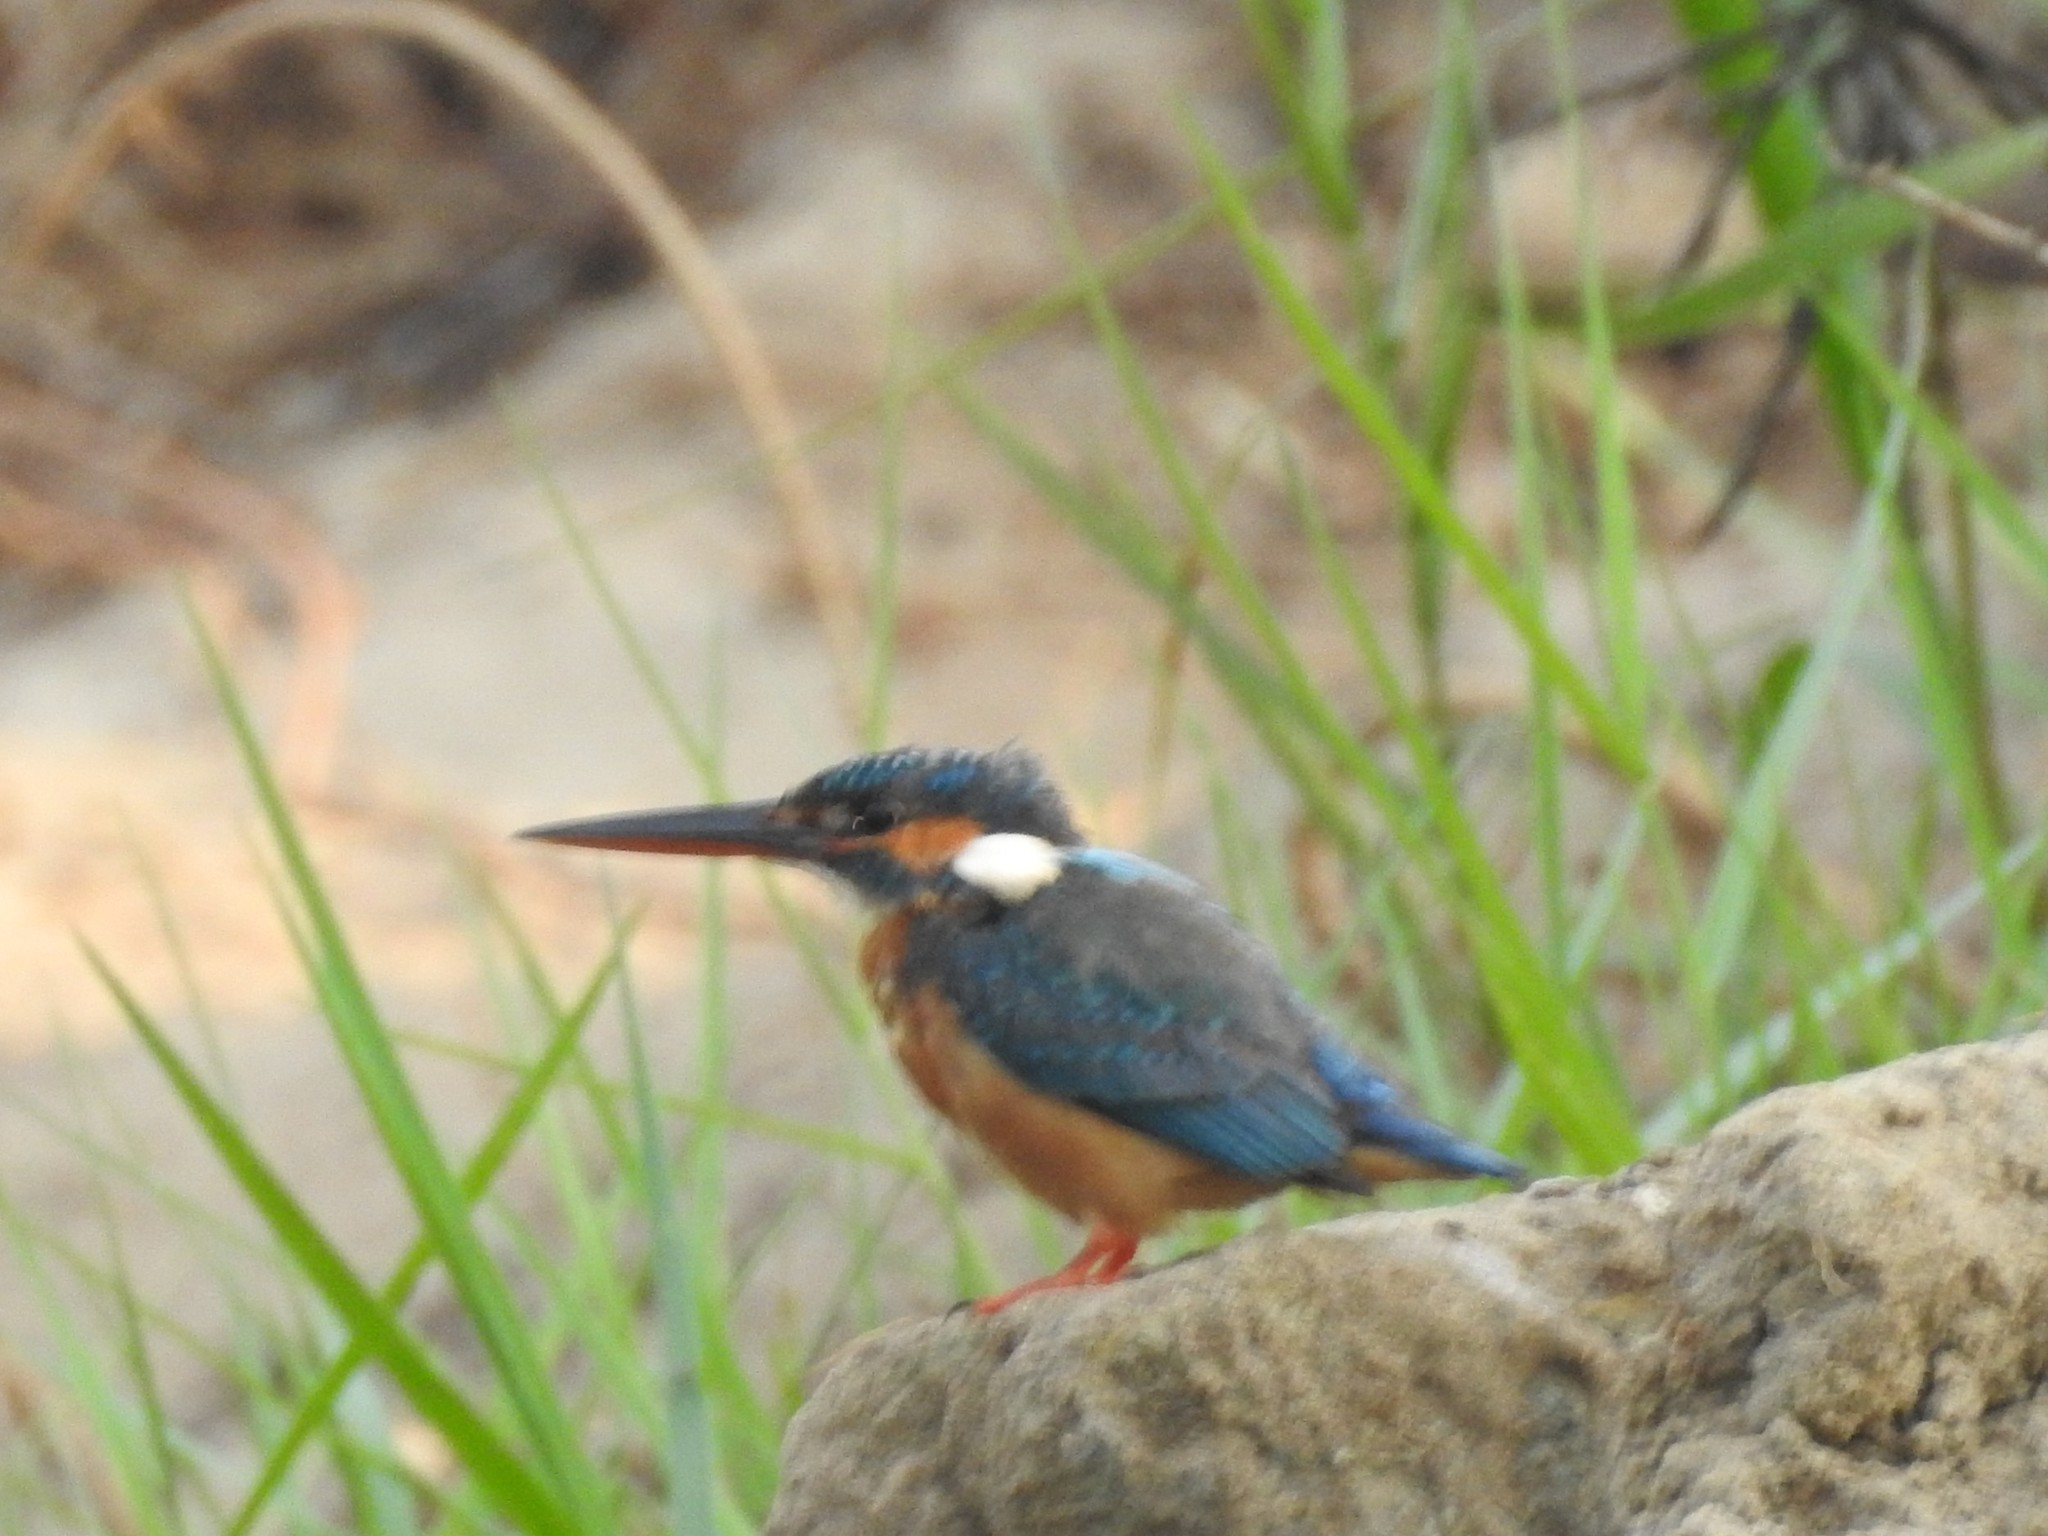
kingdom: Animalia
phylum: Chordata
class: Aves
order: Coraciiformes
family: Alcedinidae
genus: Alcedo
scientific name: Alcedo atthis
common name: Common kingfisher
